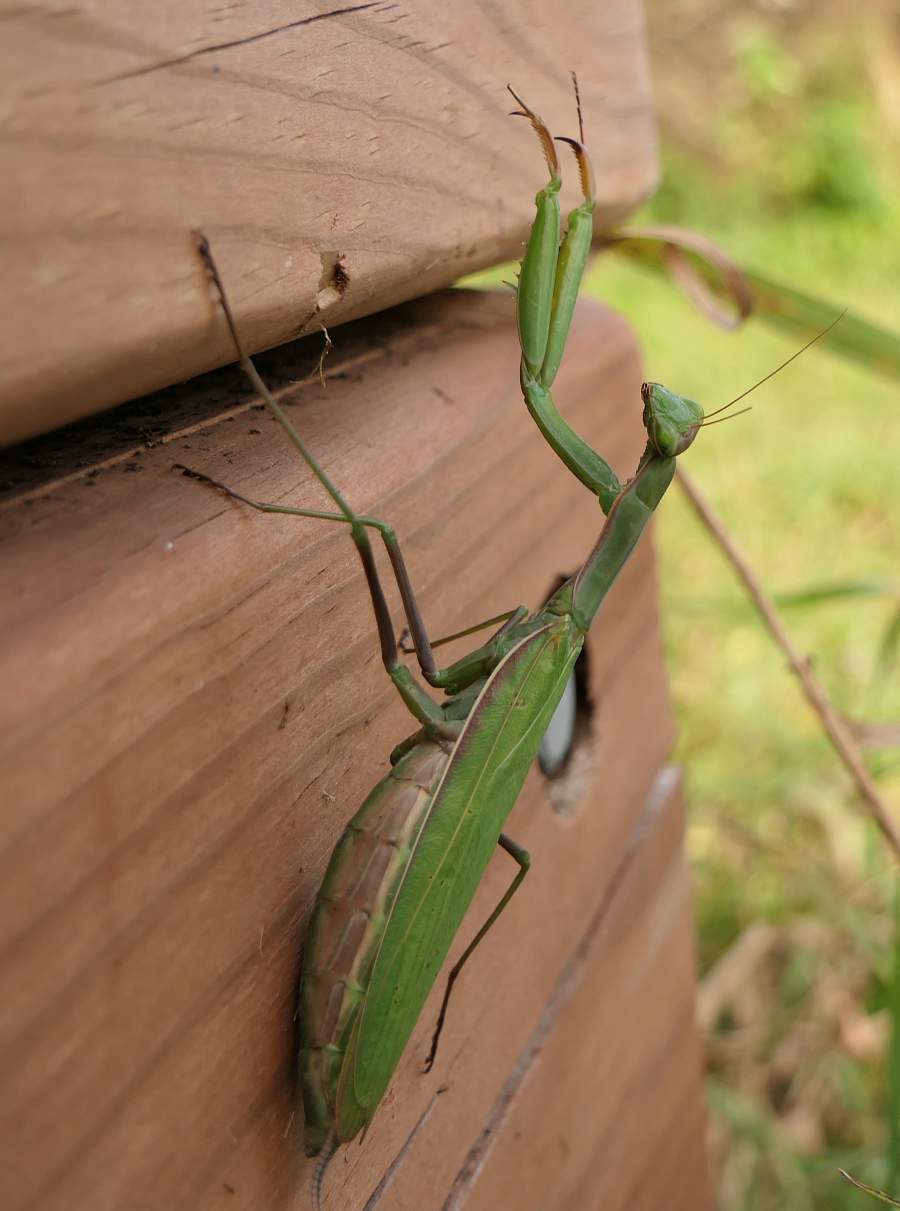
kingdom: Animalia
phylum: Arthropoda
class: Insecta
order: Mantodea
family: Mantidae
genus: Mantis
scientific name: Mantis religiosa
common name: Praying mantis
